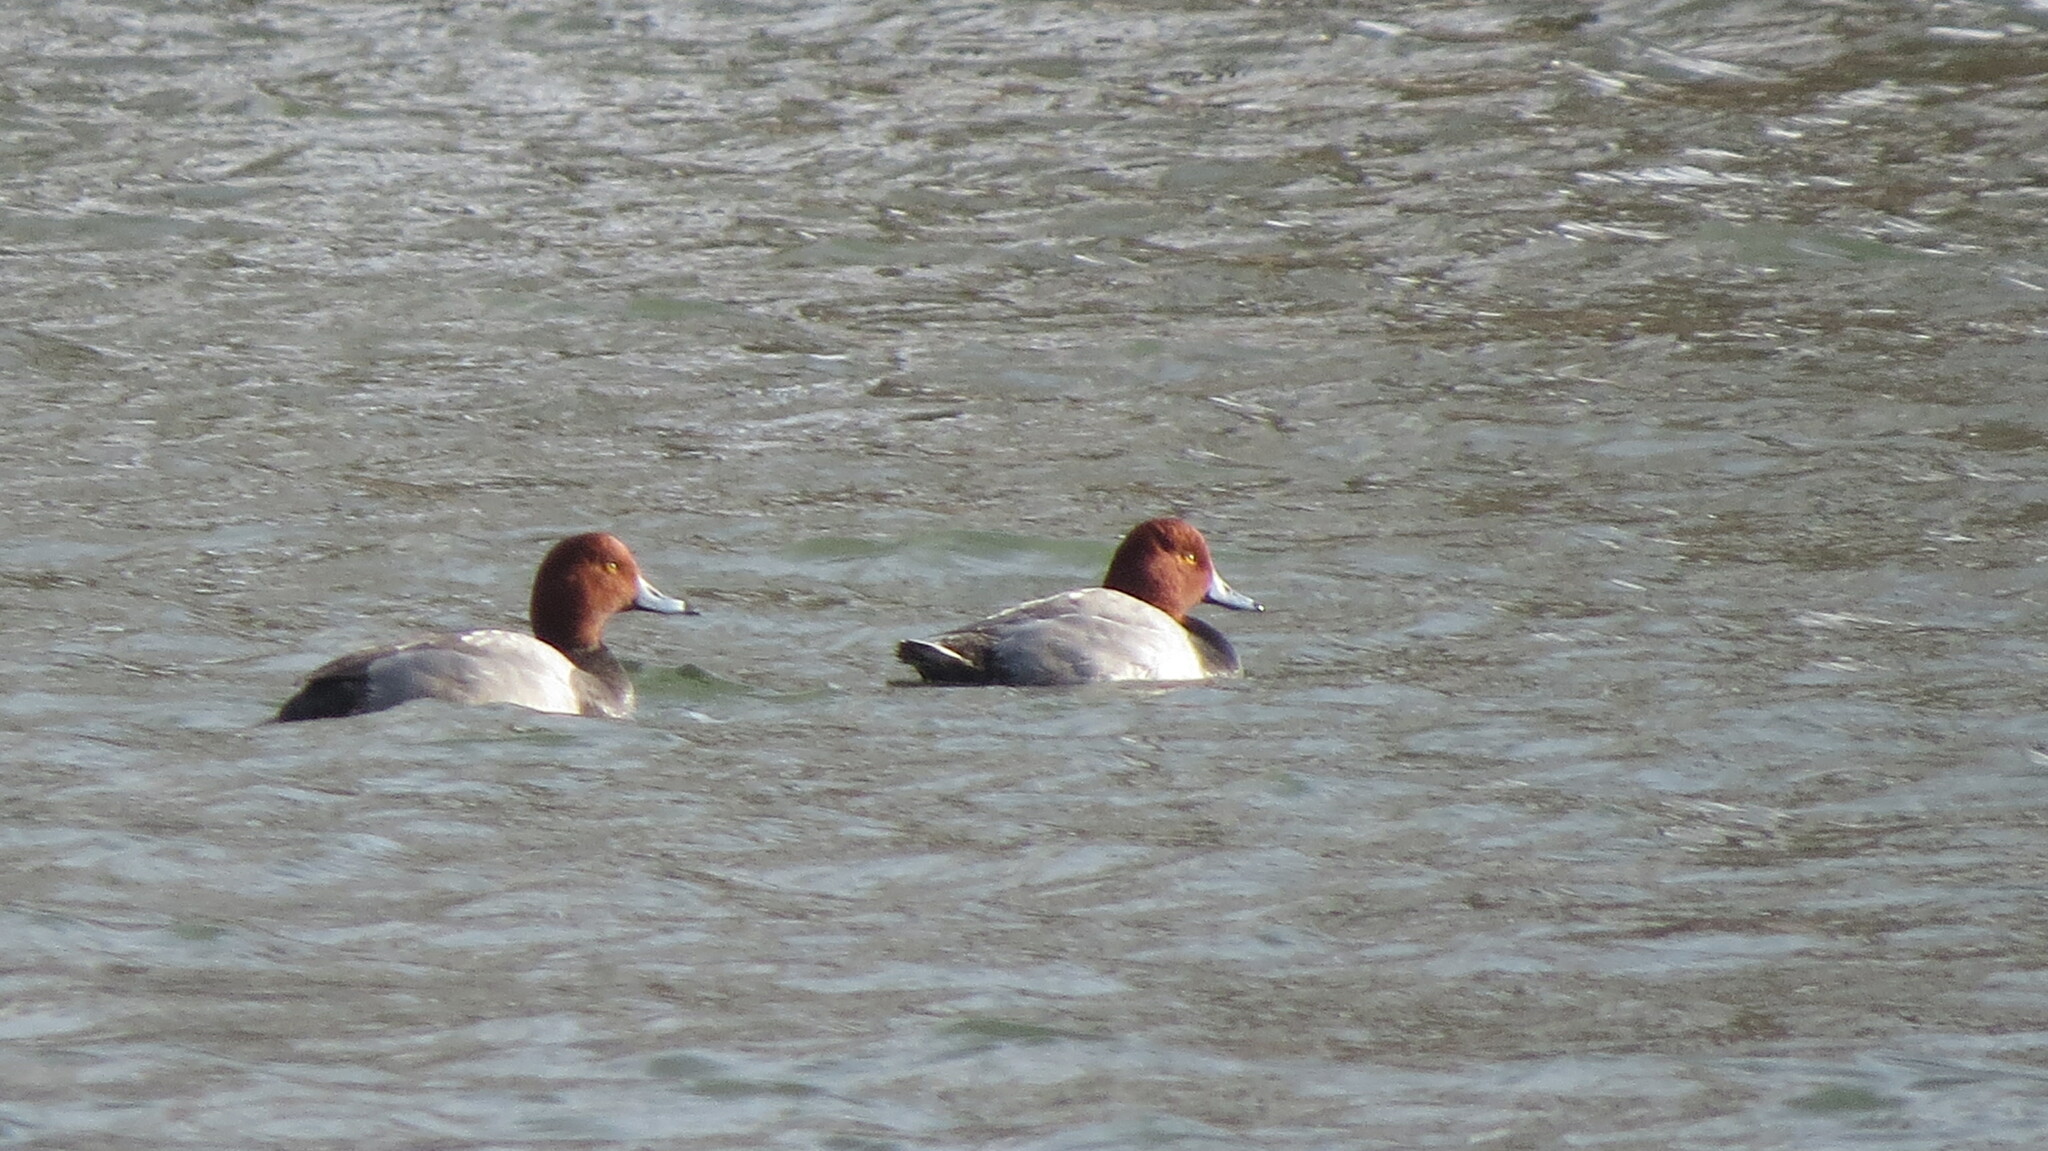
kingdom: Animalia
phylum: Chordata
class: Aves
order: Anseriformes
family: Anatidae
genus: Aythya
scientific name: Aythya americana
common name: Redhead
